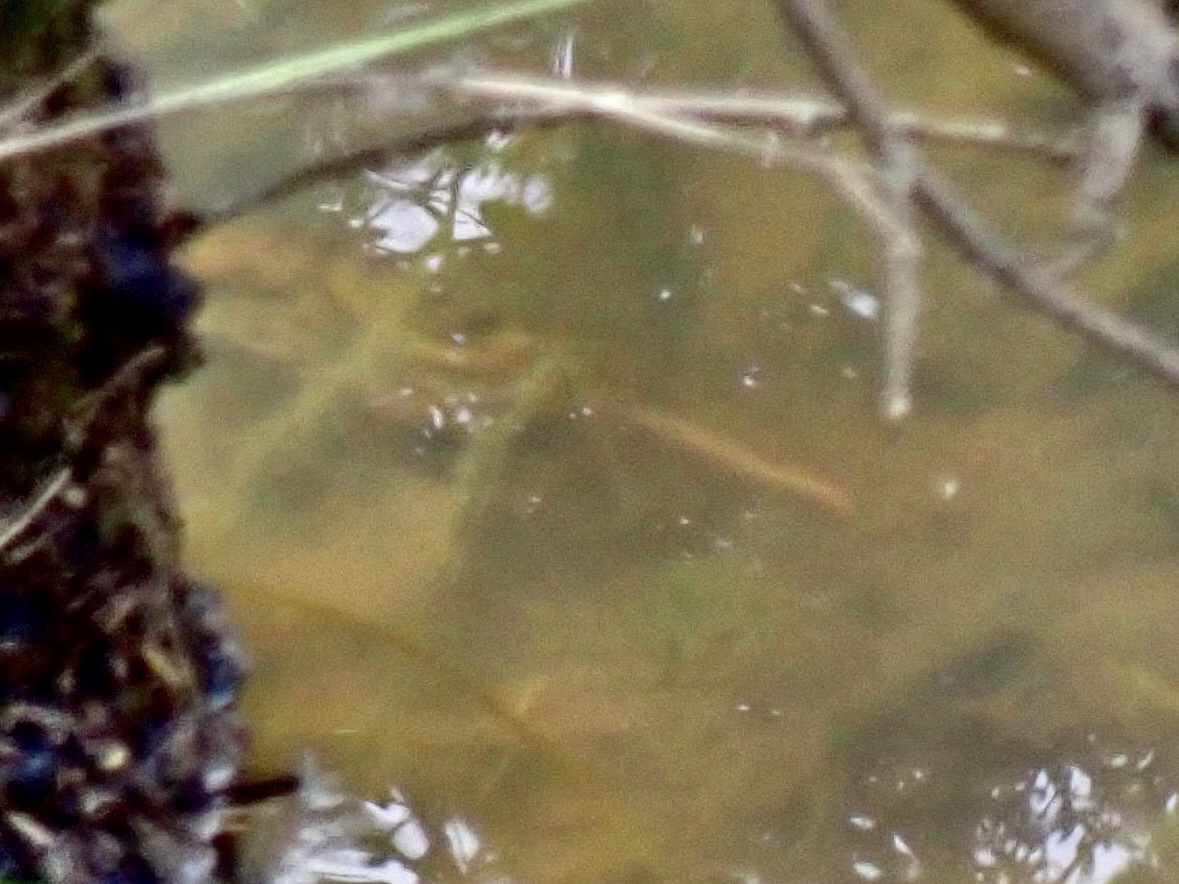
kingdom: Animalia
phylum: Chordata
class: Amphibia
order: Caudata
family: Salamandridae
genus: Triturus
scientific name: Triturus marmoratus
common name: Marbled newt
